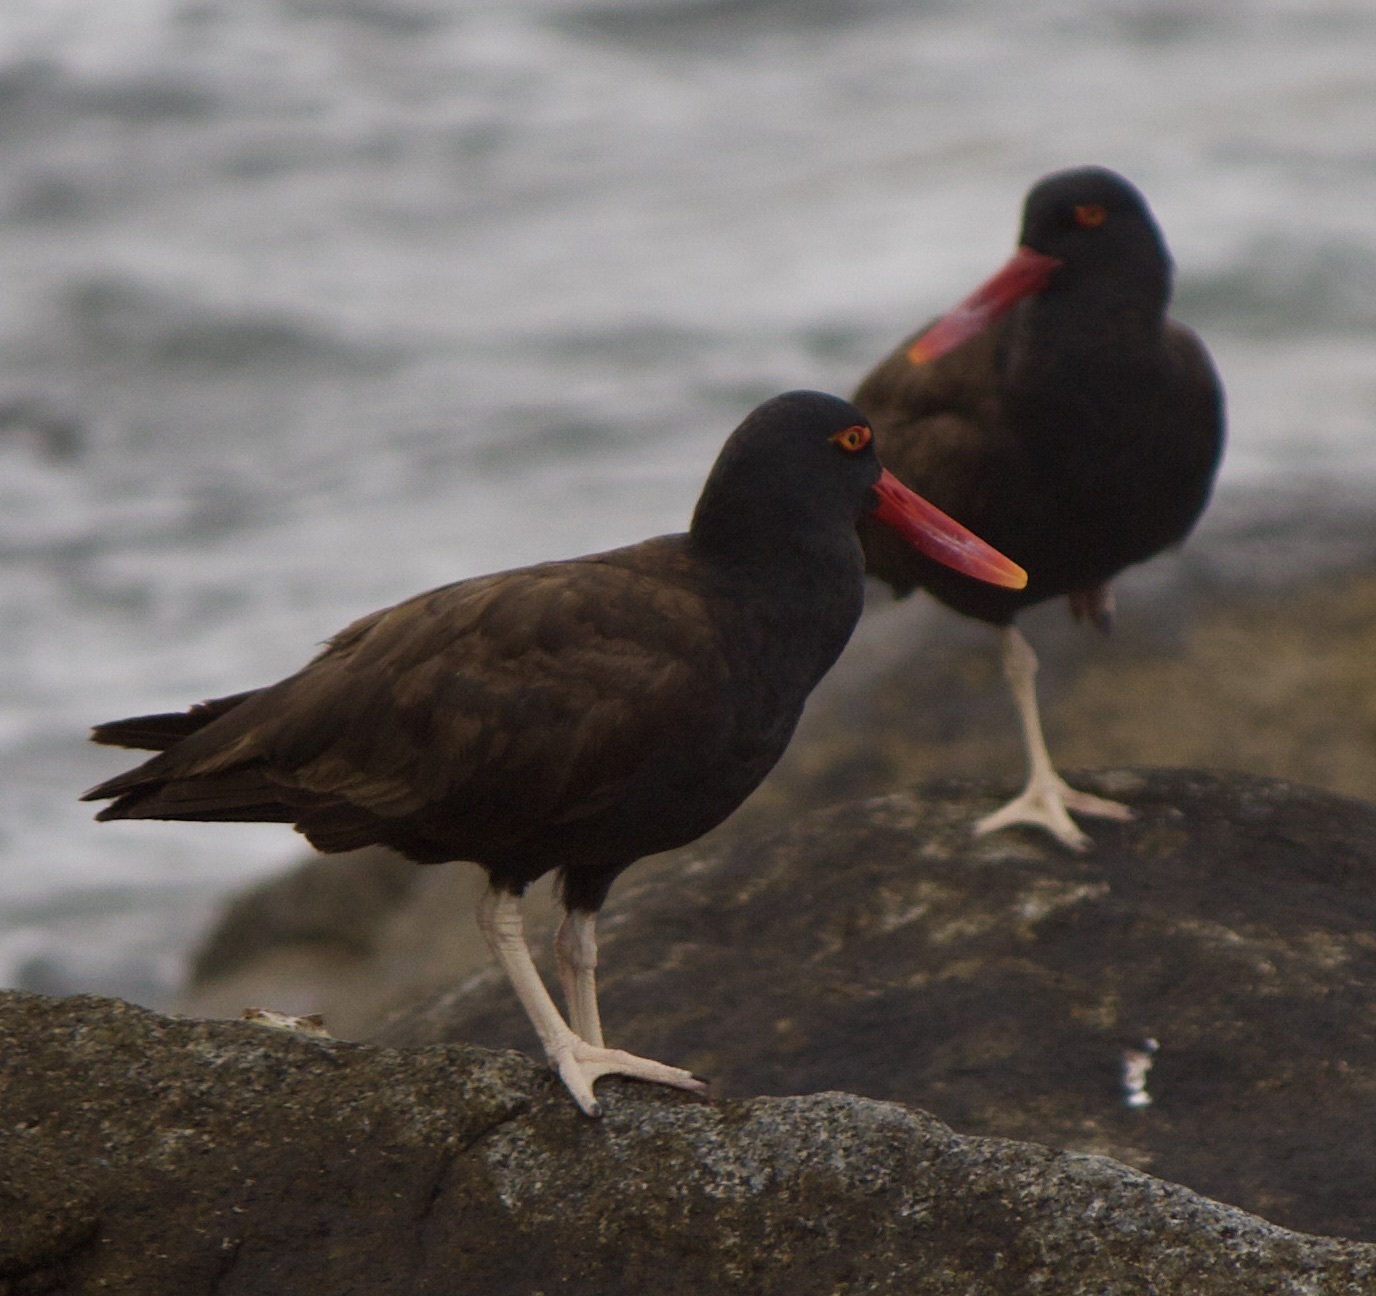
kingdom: Animalia
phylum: Chordata
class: Aves
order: Charadriiformes
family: Haematopodidae
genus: Haematopus
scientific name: Haematopus ater
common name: Blackish oystercatcher
